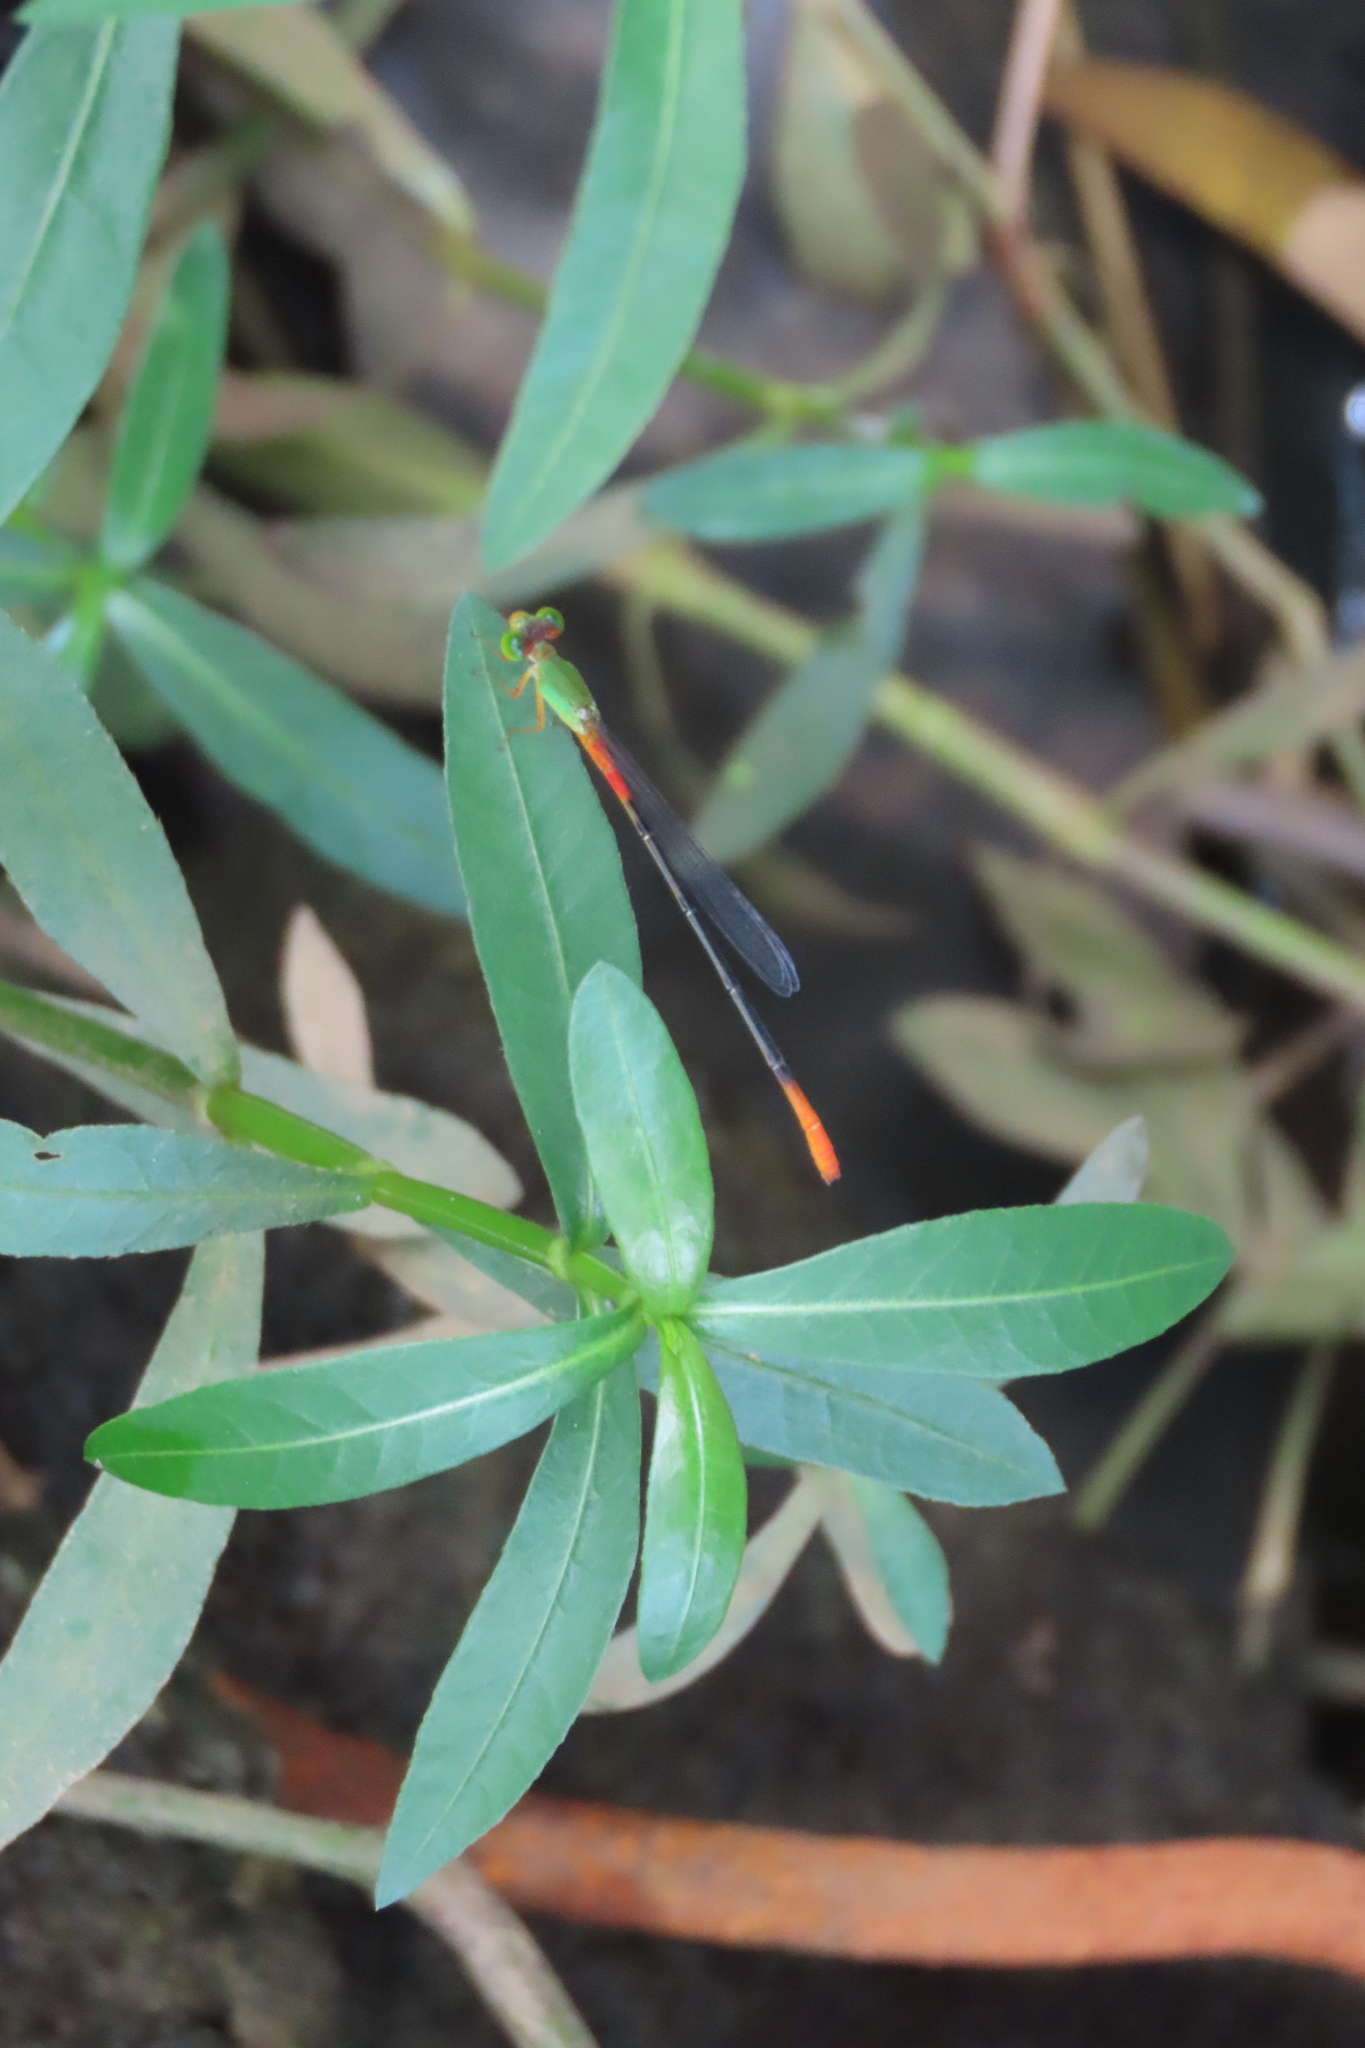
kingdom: Animalia
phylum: Arthropoda
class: Insecta
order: Odonata
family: Coenagrionidae
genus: Ceriagrion
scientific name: Ceriagrion cerinorubellum
